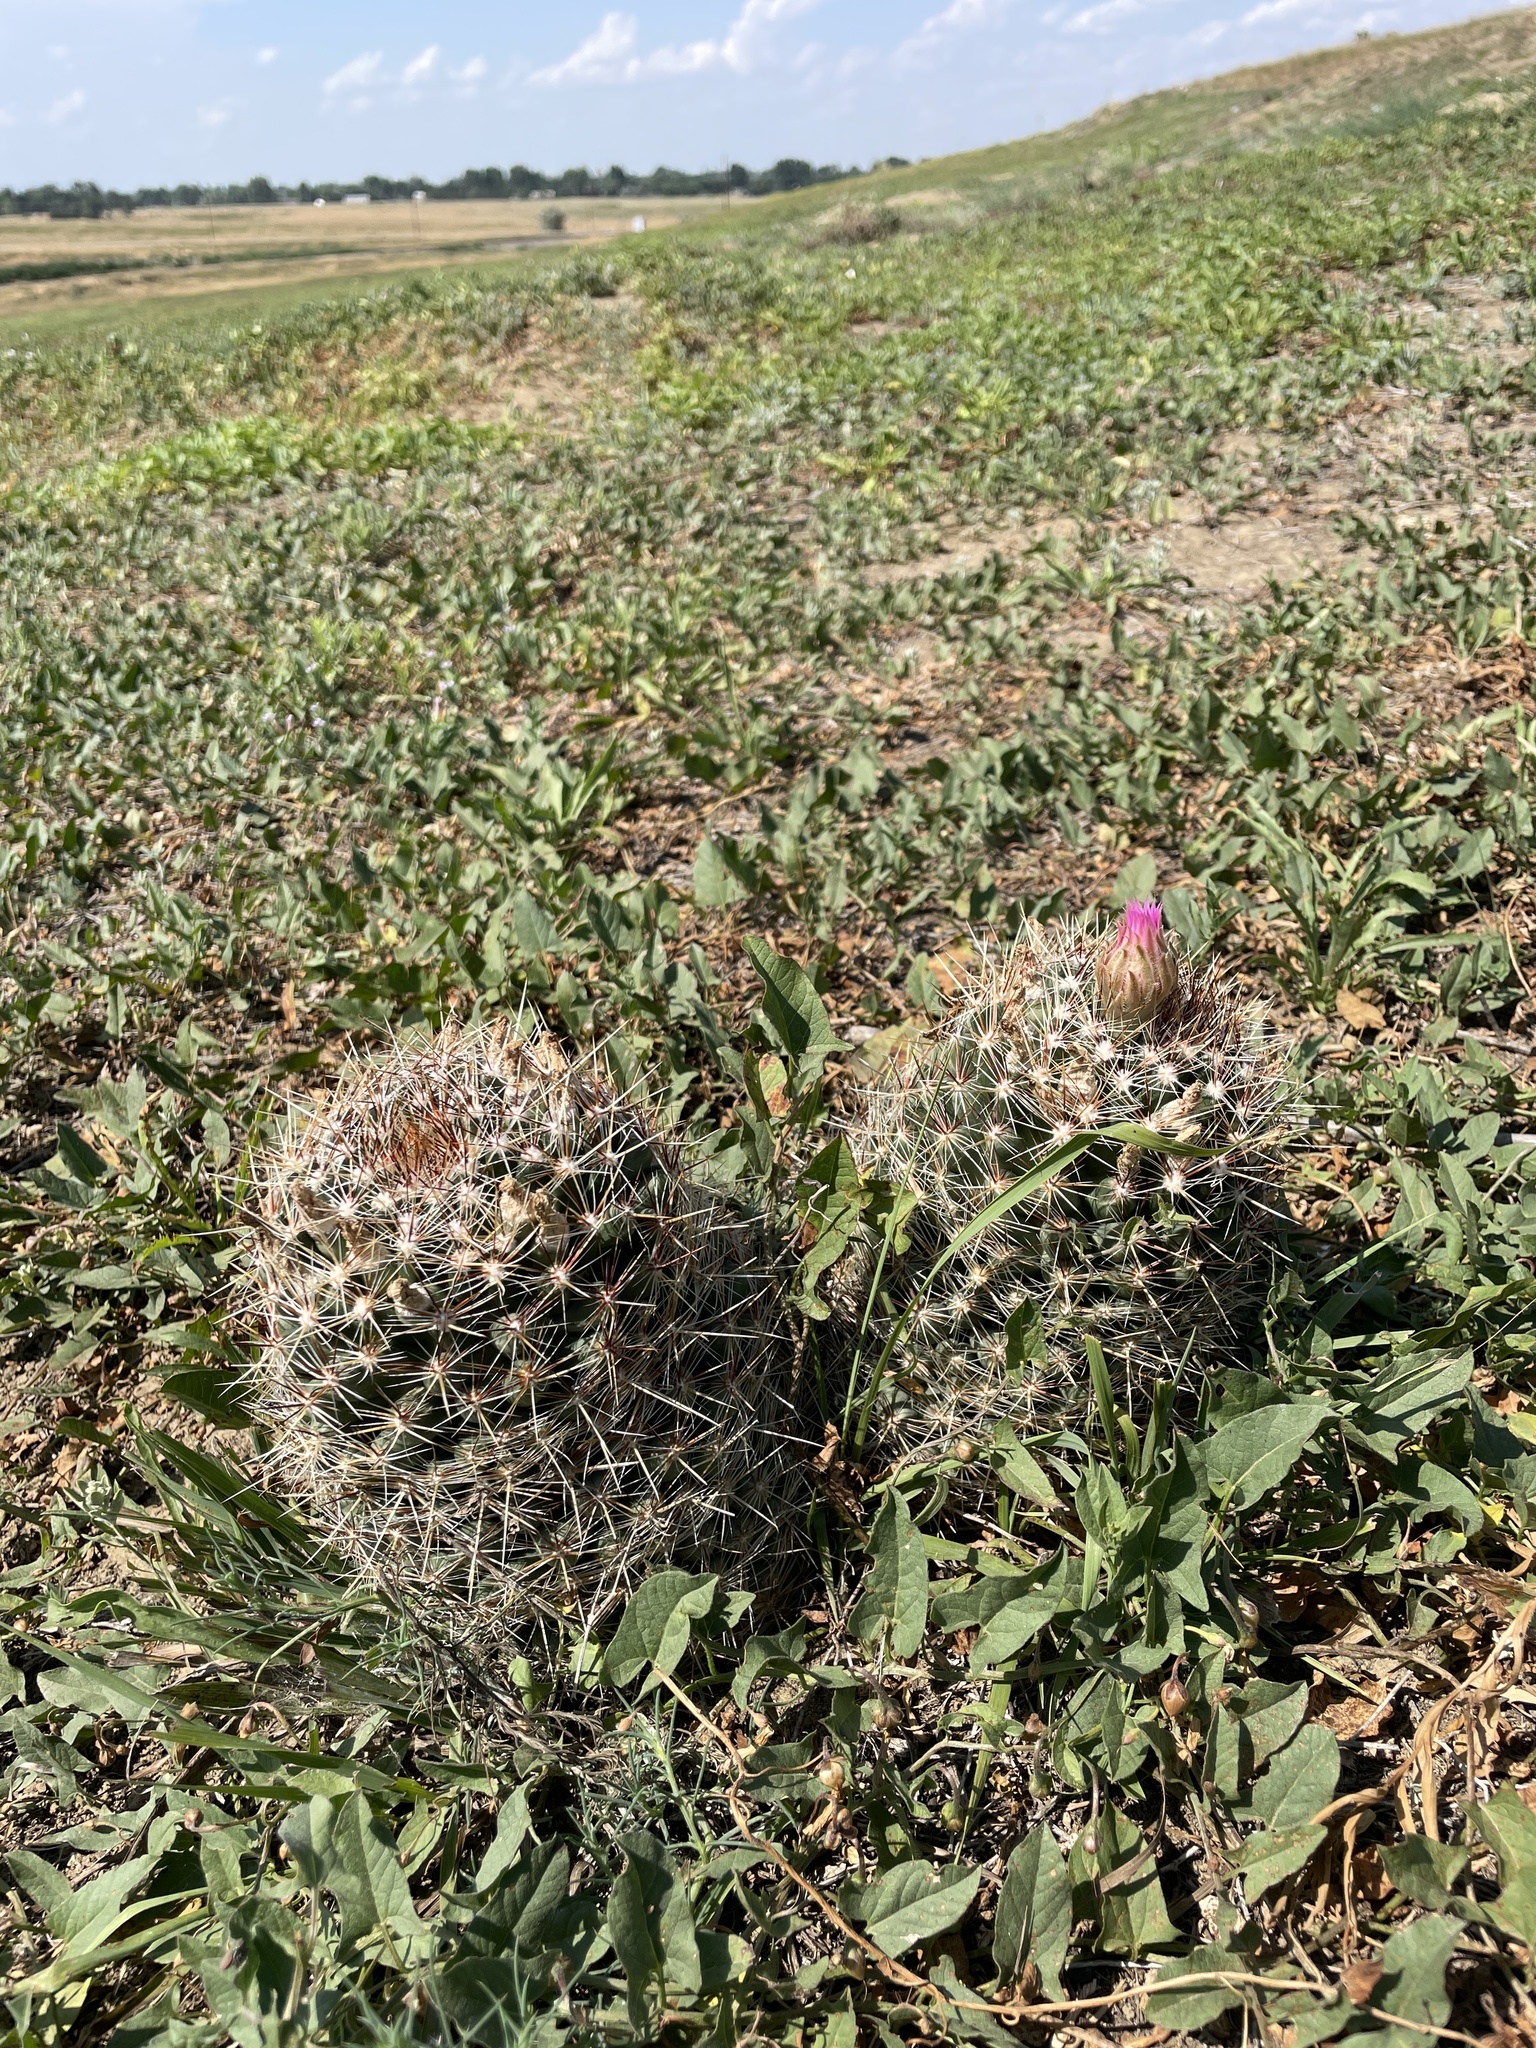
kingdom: Plantae
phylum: Tracheophyta
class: Magnoliopsida
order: Caryophyllales
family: Cactaceae
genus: Pelecyphora
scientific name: Pelecyphora vivipara
